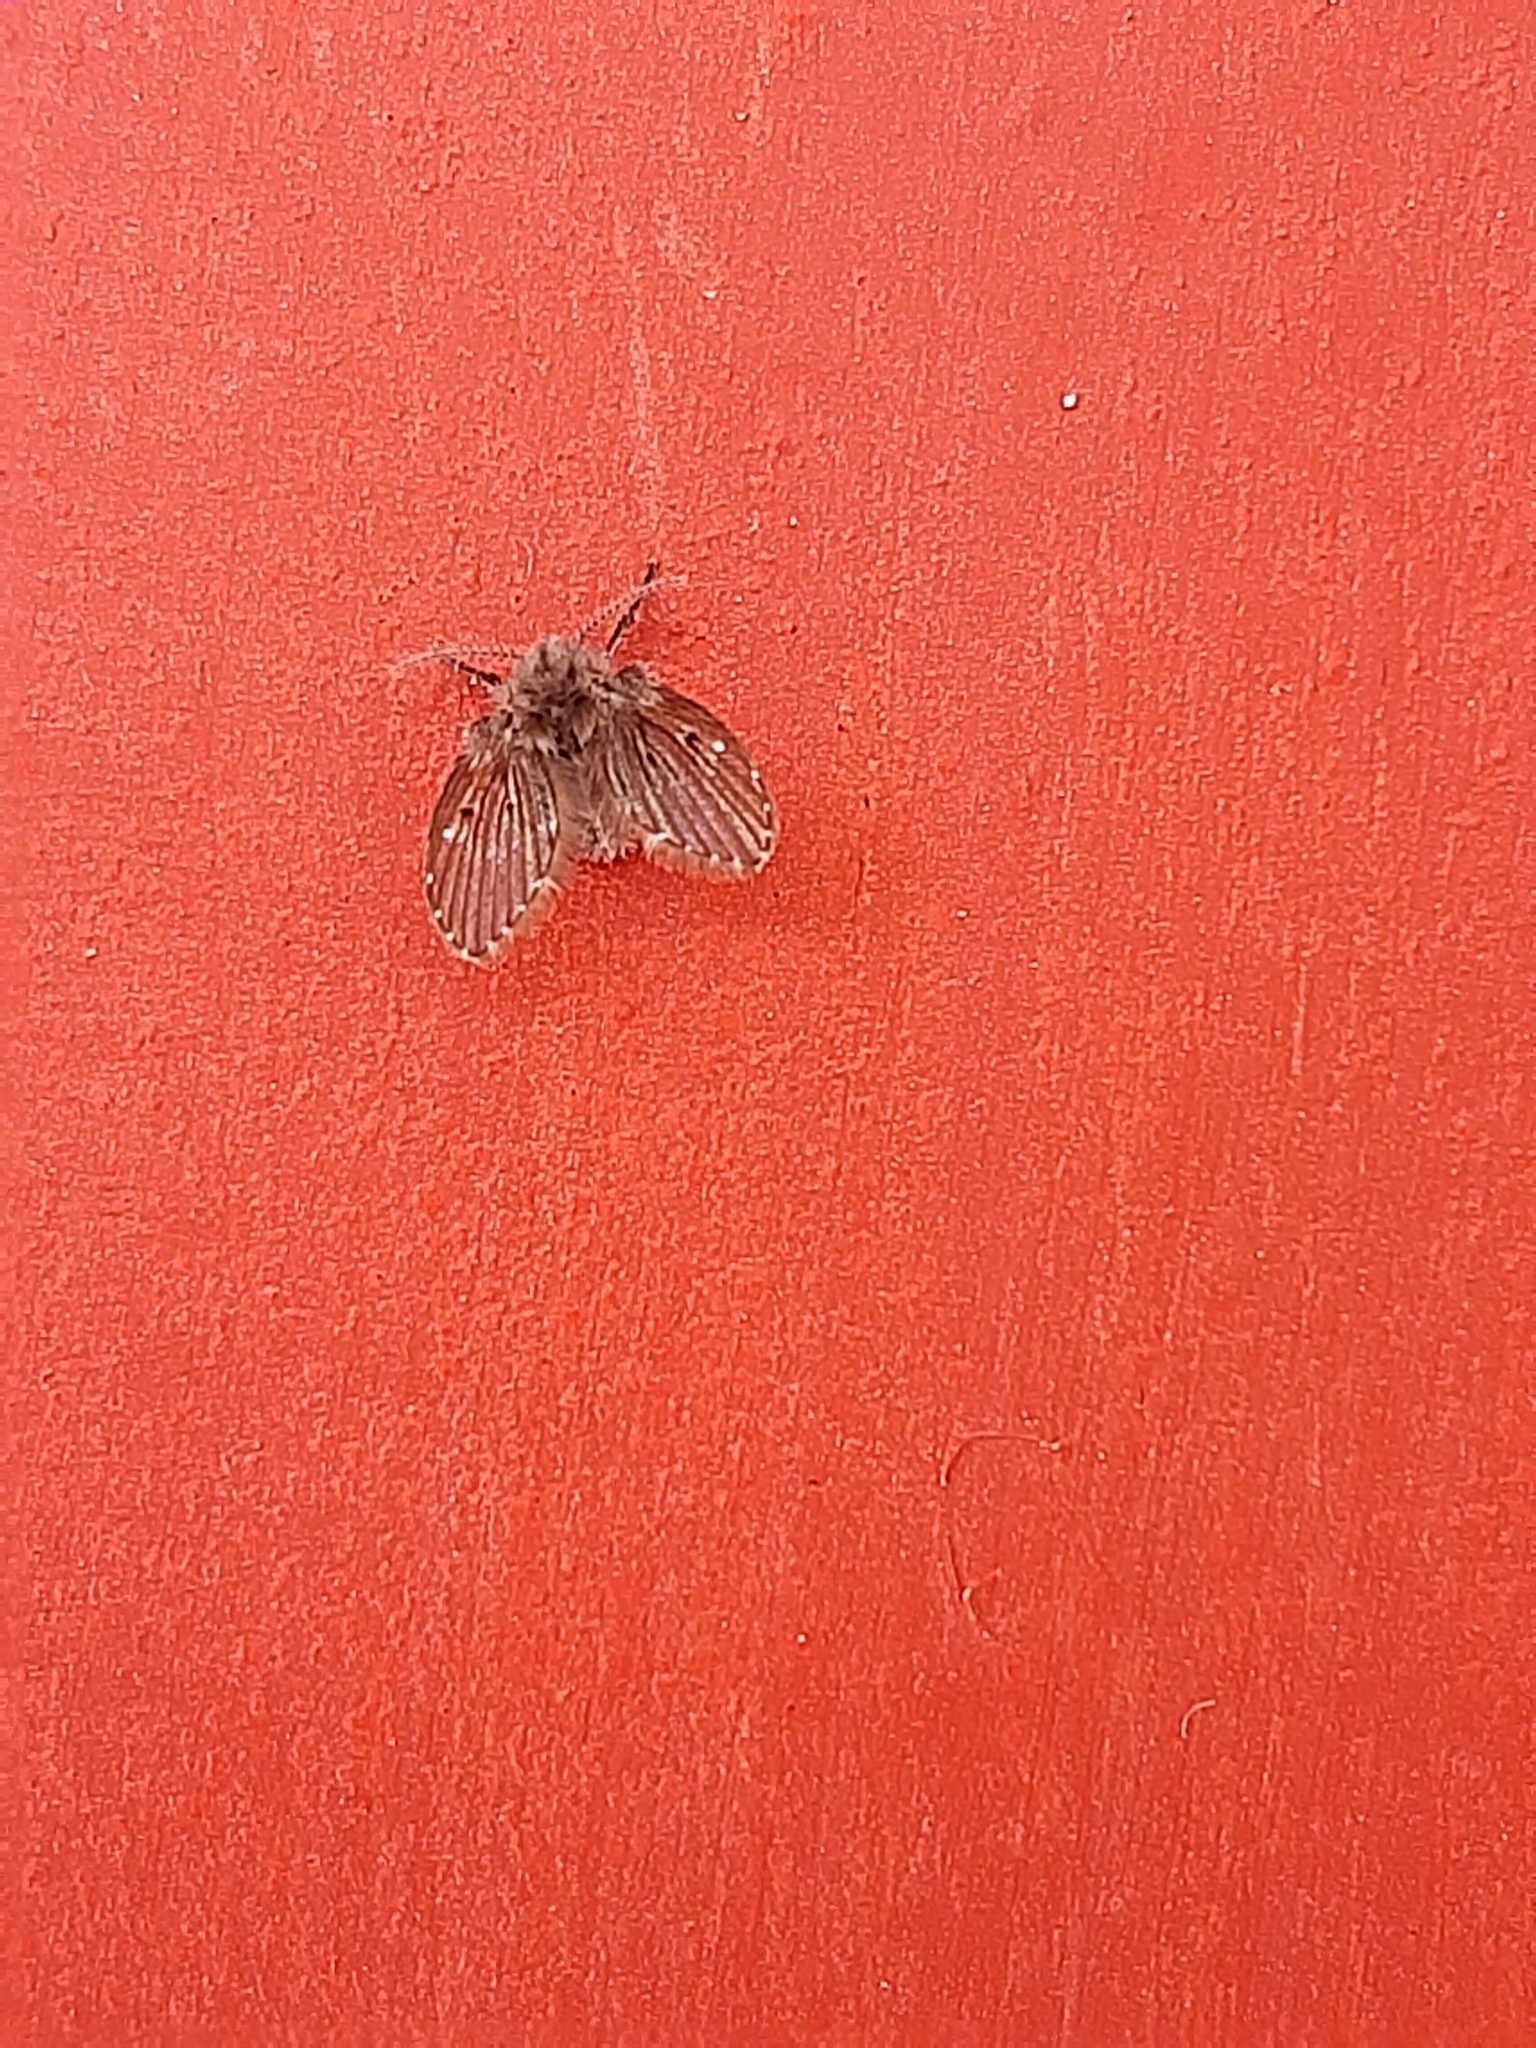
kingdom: Animalia
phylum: Arthropoda
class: Insecta
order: Diptera
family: Psychodidae
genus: Clogmia
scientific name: Clogmia albipunctatus
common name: White-spotted moth fly
